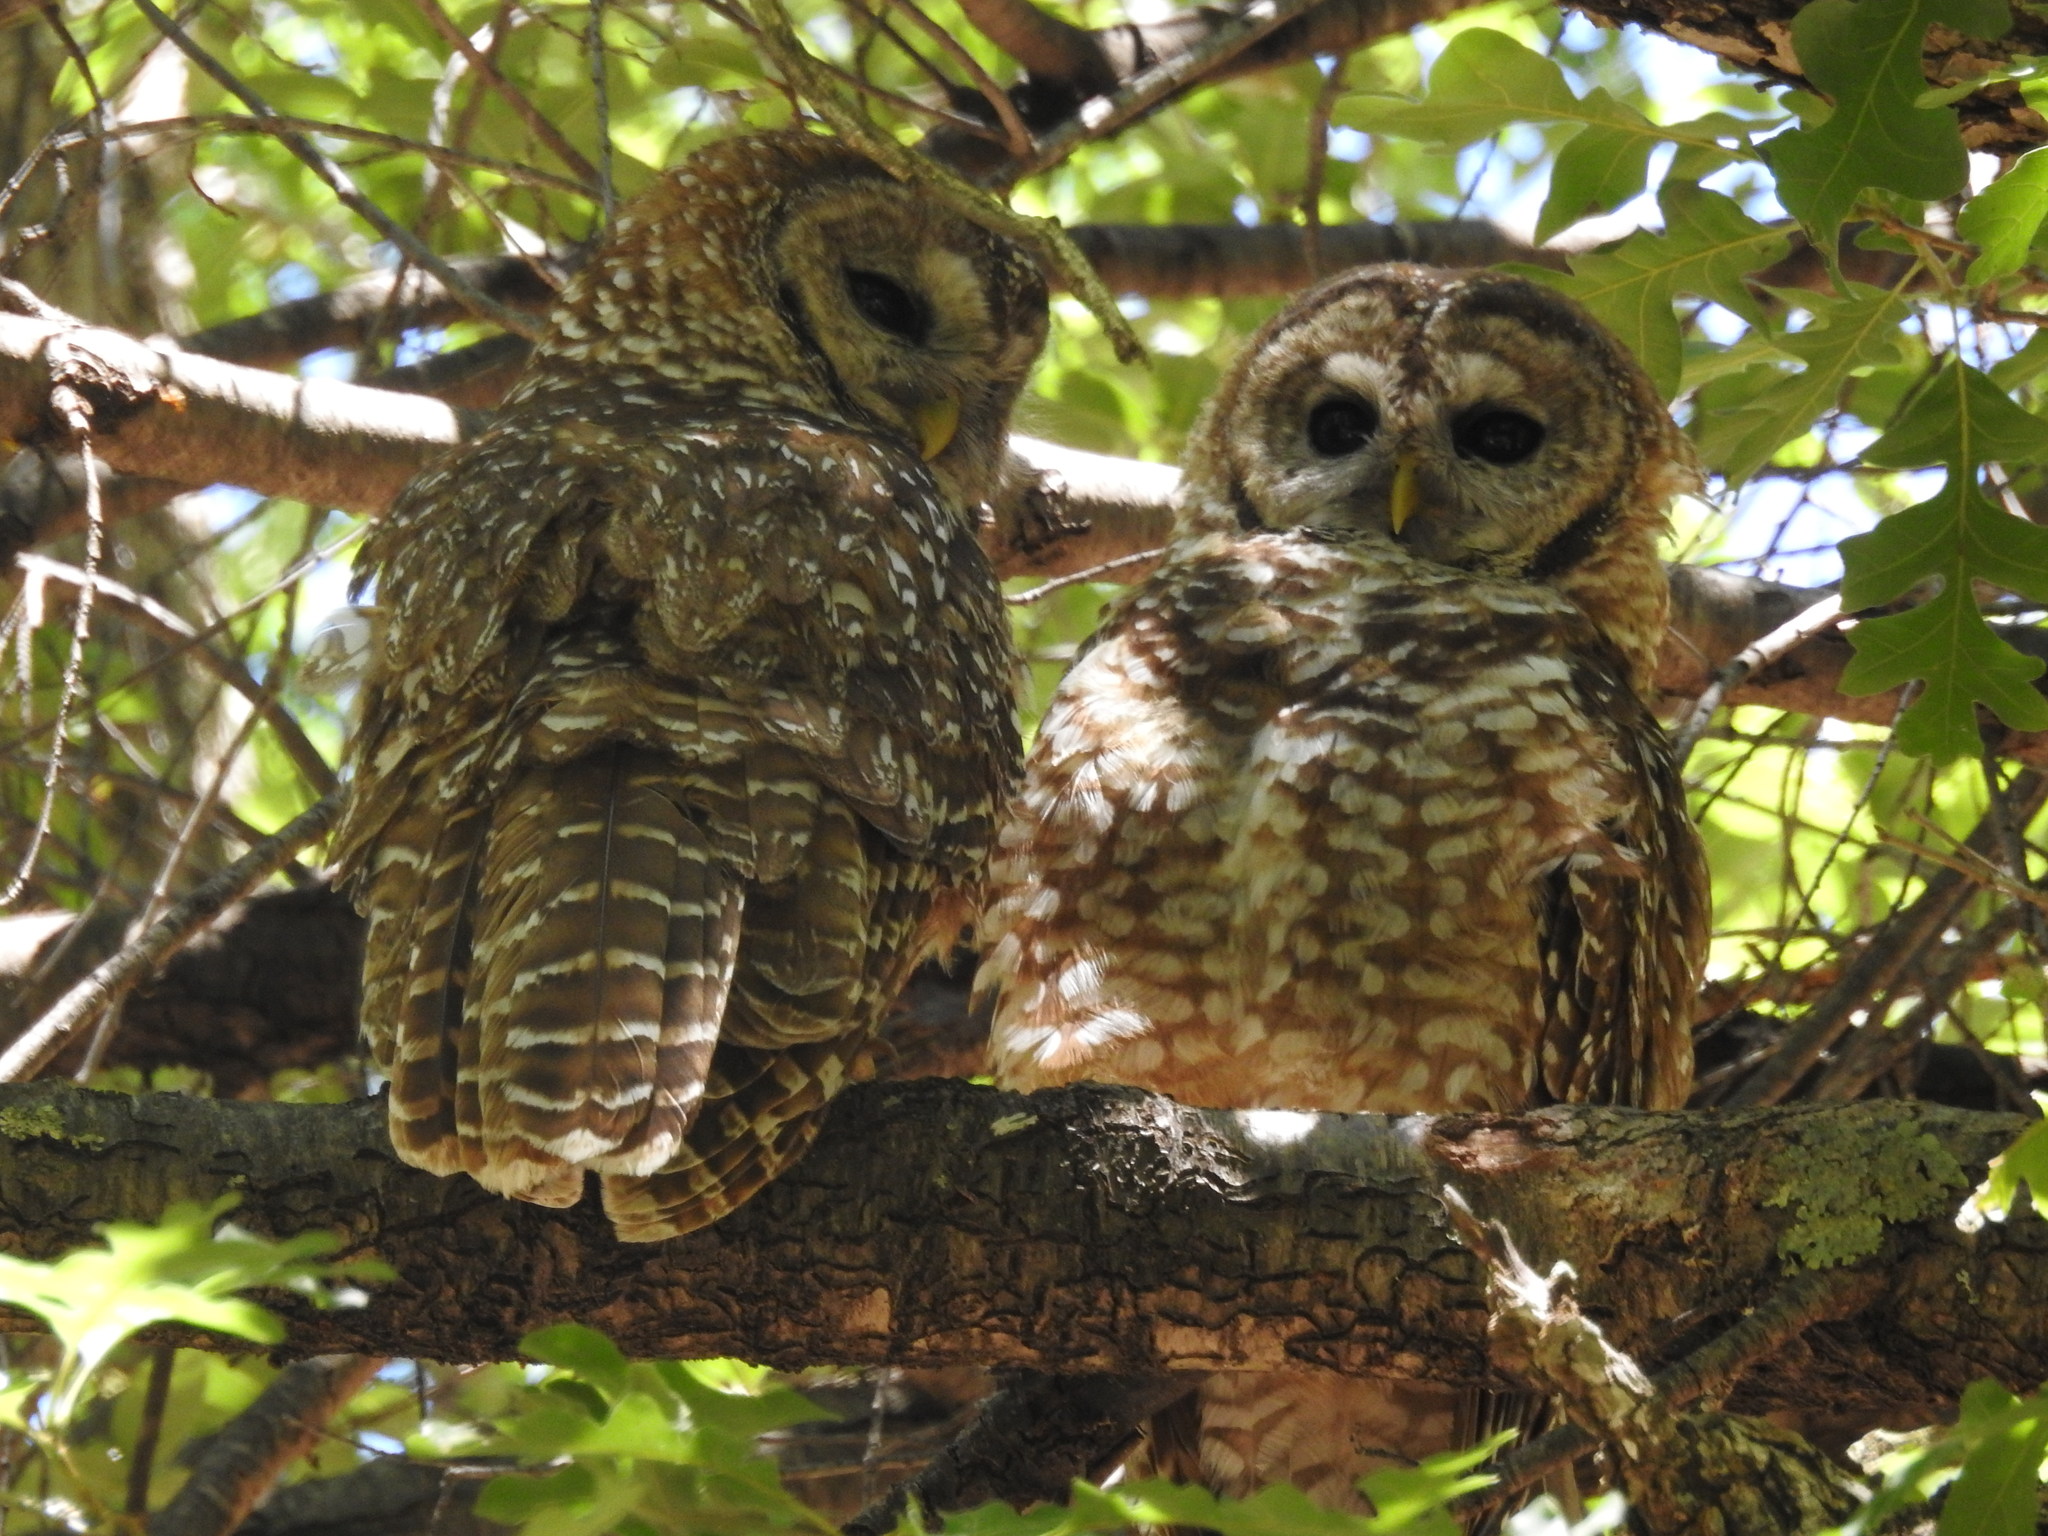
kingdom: Animalia
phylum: Chordata
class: Aves
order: Strigiformes
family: Strigidae
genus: Strix
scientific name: Strix occidentalis
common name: Spotted owl
